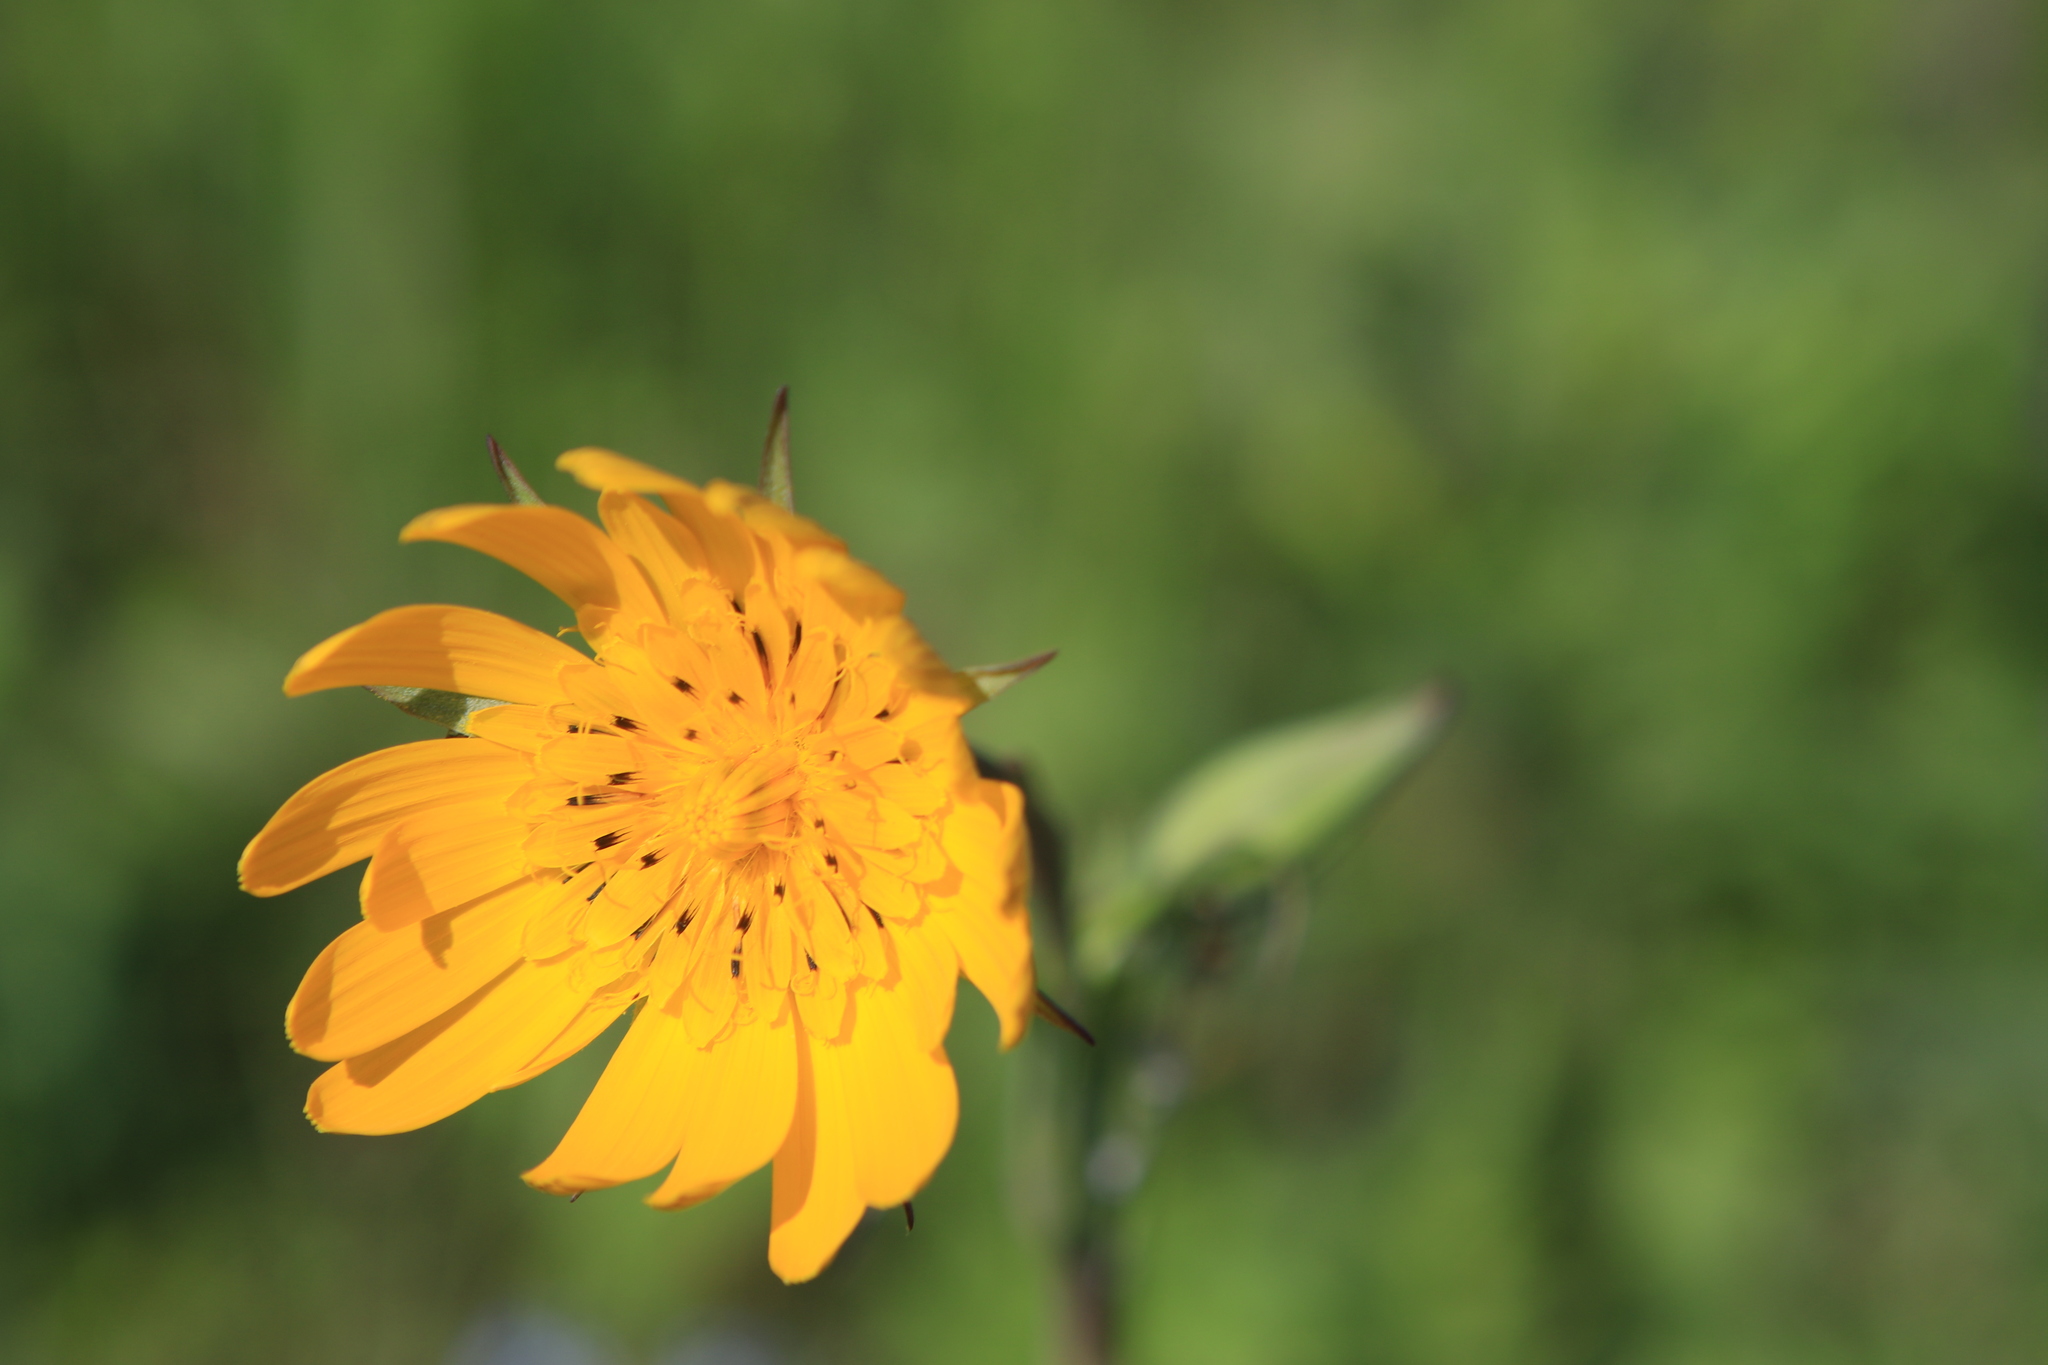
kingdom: Plantae
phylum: Tracheophyta
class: Magnoliopsida
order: Asterales
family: Asteraceae
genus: Tragopogon
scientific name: Tragopogon orientalis
